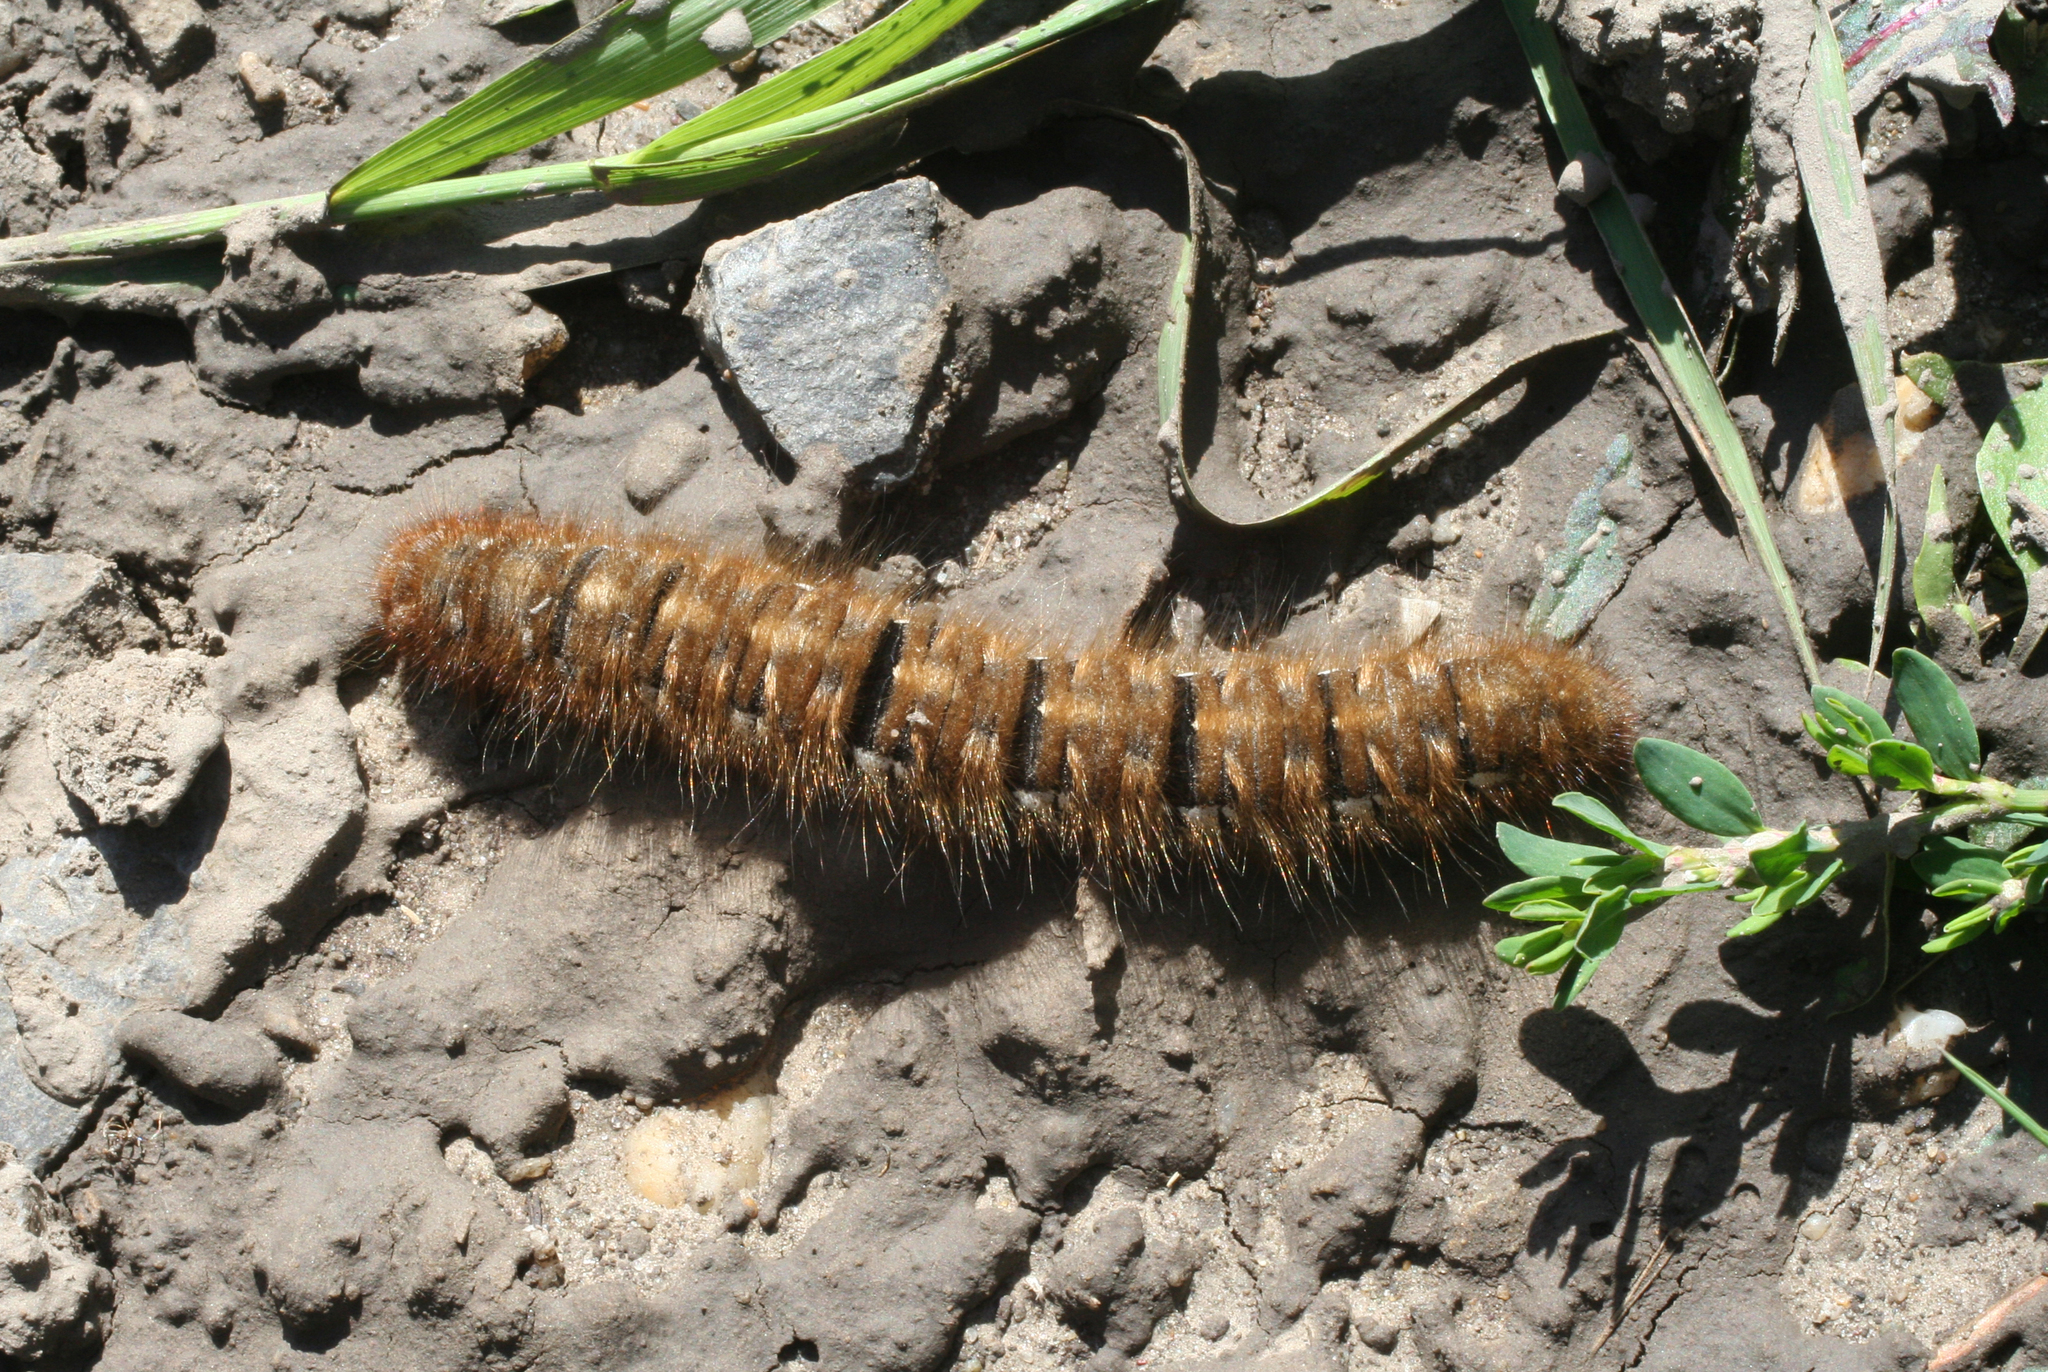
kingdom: Animalia
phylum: Arthropoda
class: Insecta
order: Lepidoptera
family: Lasiocampidae
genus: Lasiocampa
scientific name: Lasiocampa quercus
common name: Oak eggar
